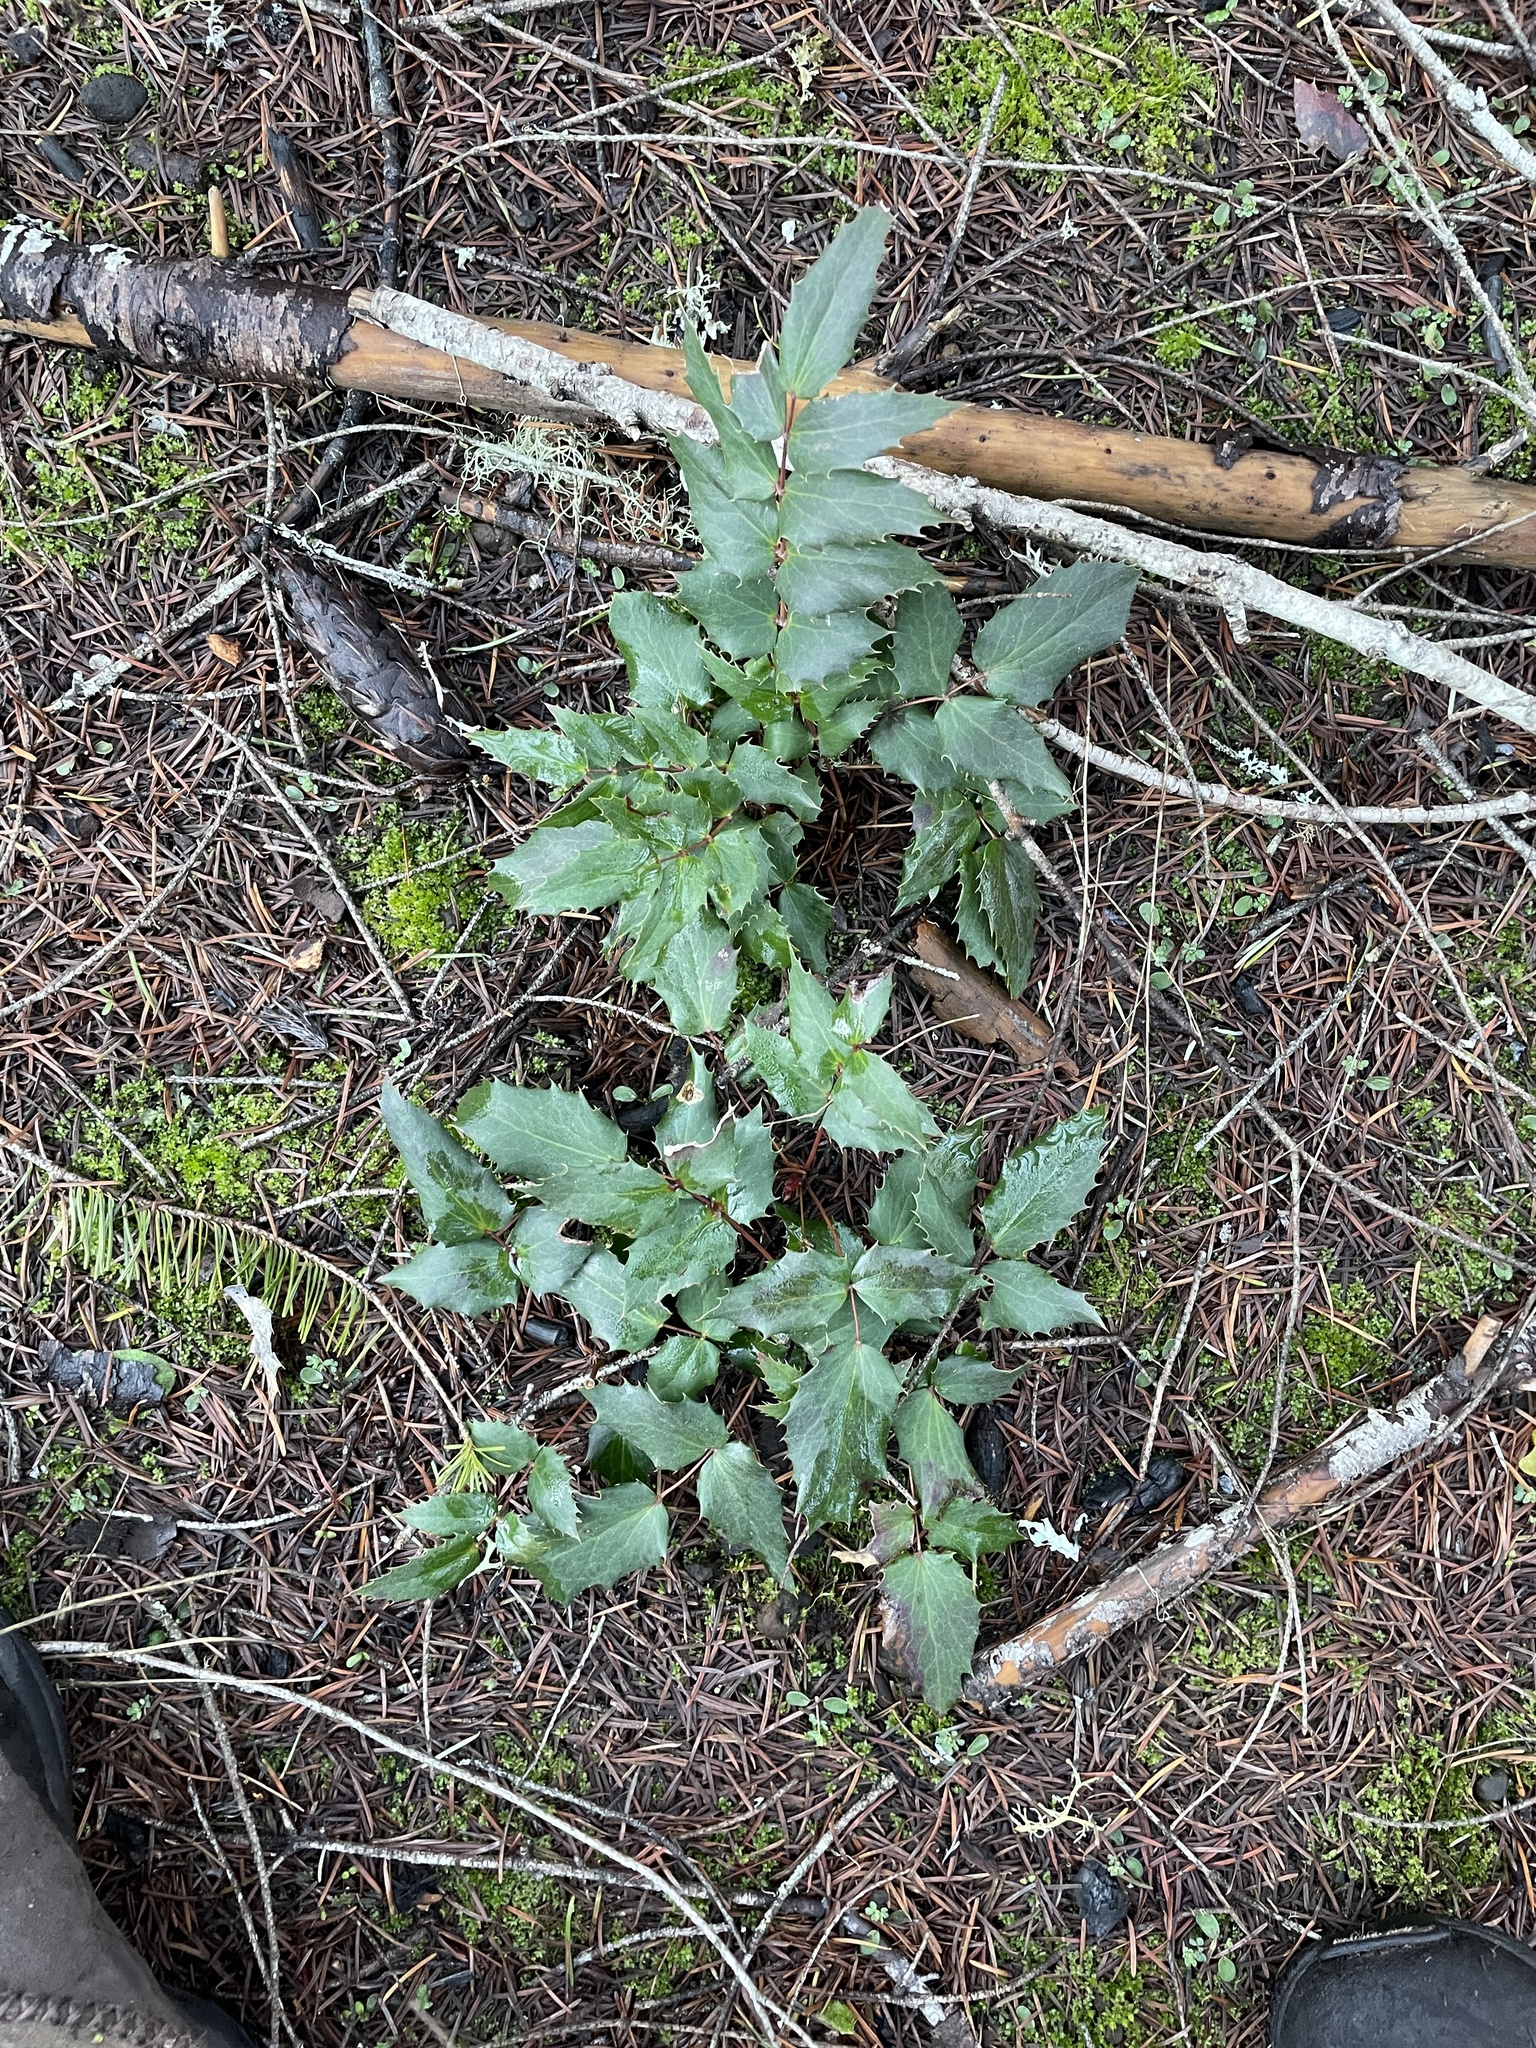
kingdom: Plantae
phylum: Tracheophyta
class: Magnoliopsida
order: Ranunculales
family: Berberidaceae
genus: Mahonia
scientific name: Mahonia nervosa
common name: Cascade oregon-grape
